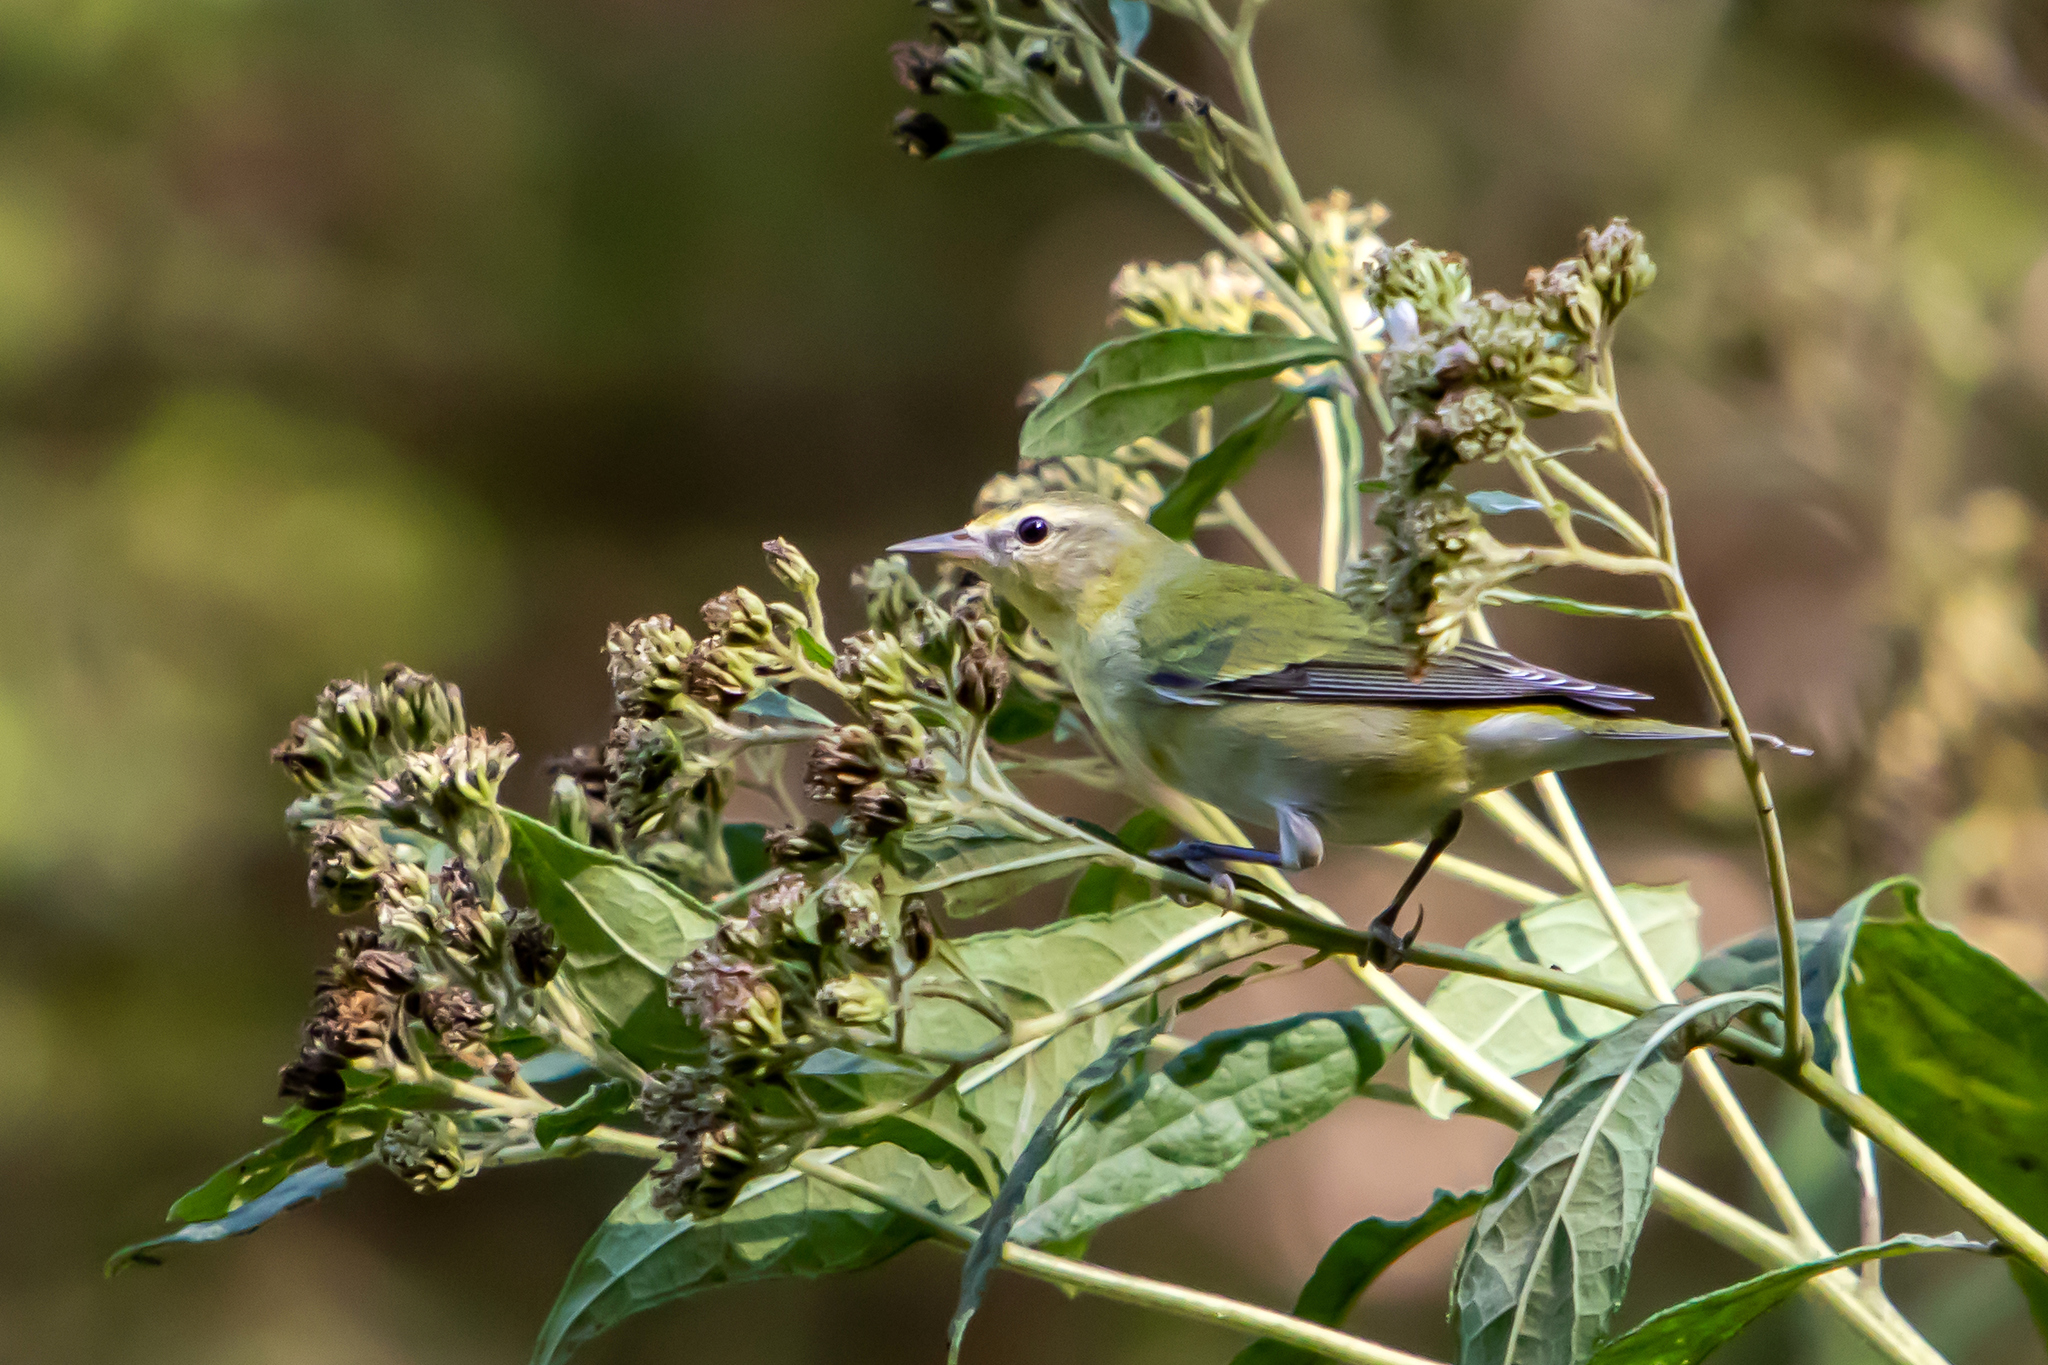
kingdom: Animalia
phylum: Chordata
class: Aves
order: Passeriformes
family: Parulidae
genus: Leiothlypis
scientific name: Leiothlypis peregrina
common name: Tennessee warbler
